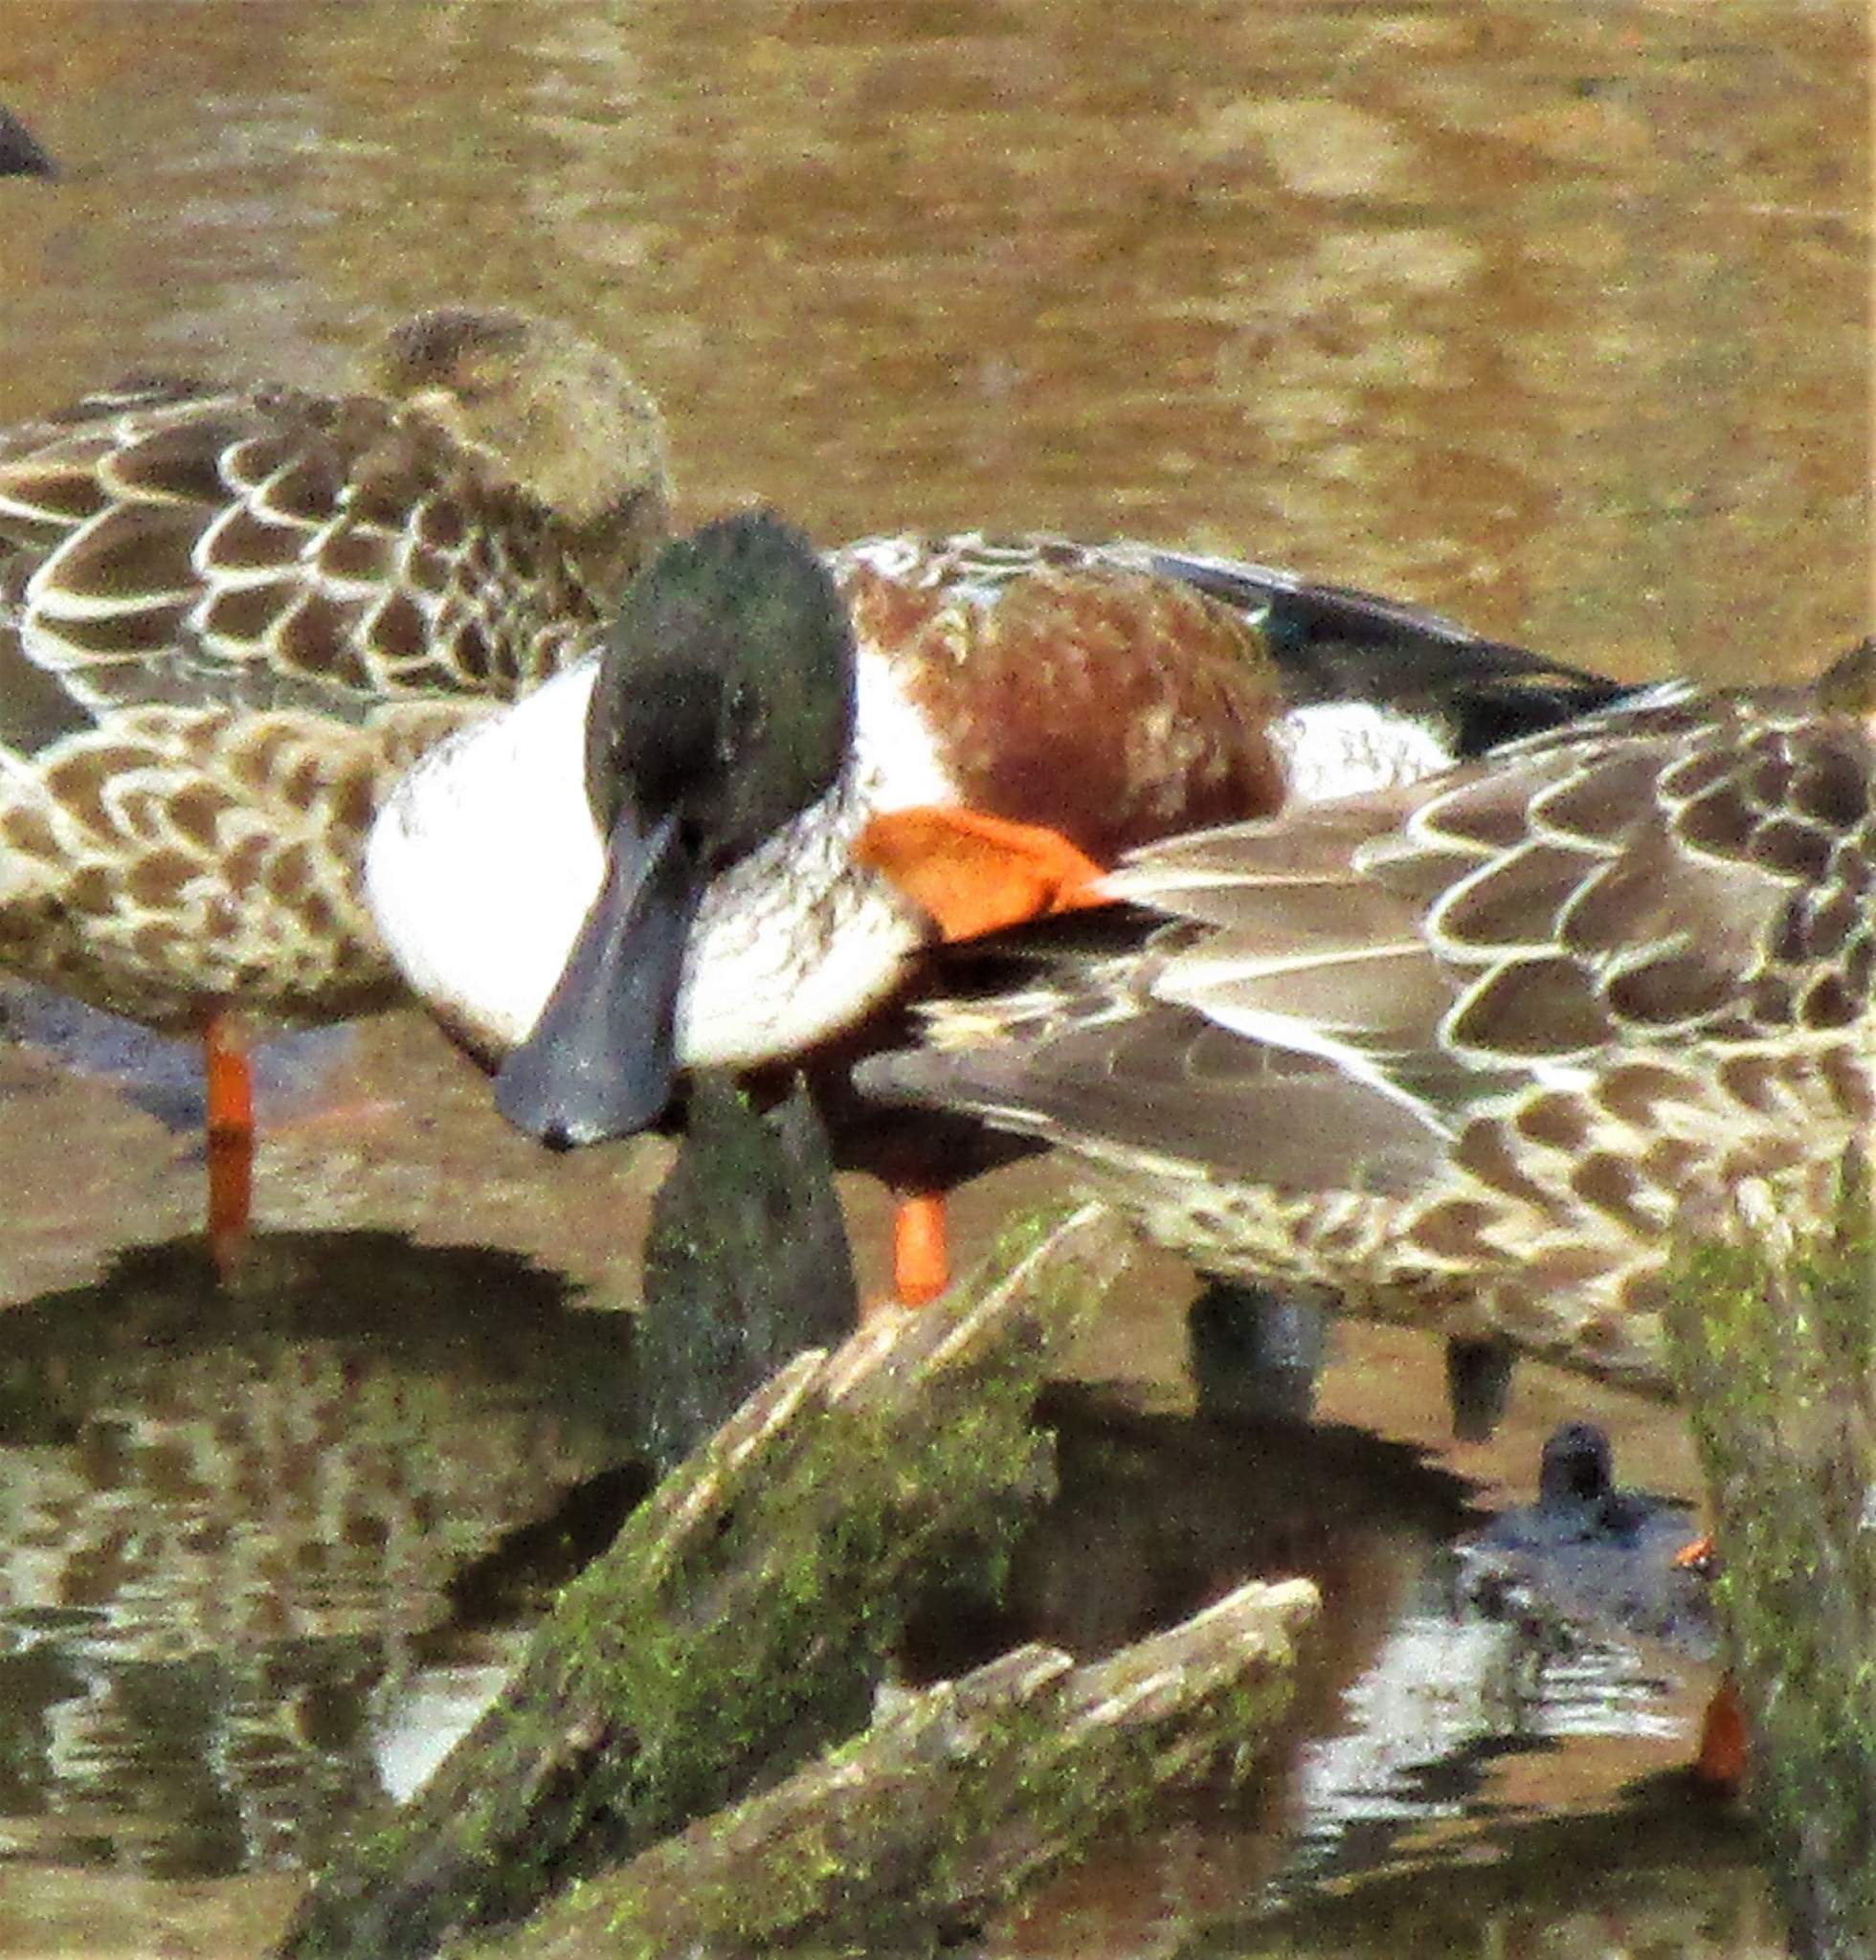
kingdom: Animalia
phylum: Chordata
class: Aves
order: Anseriformes
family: Anatidae
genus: Spatula
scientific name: Spatula clypeata
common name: Northern shoveler
